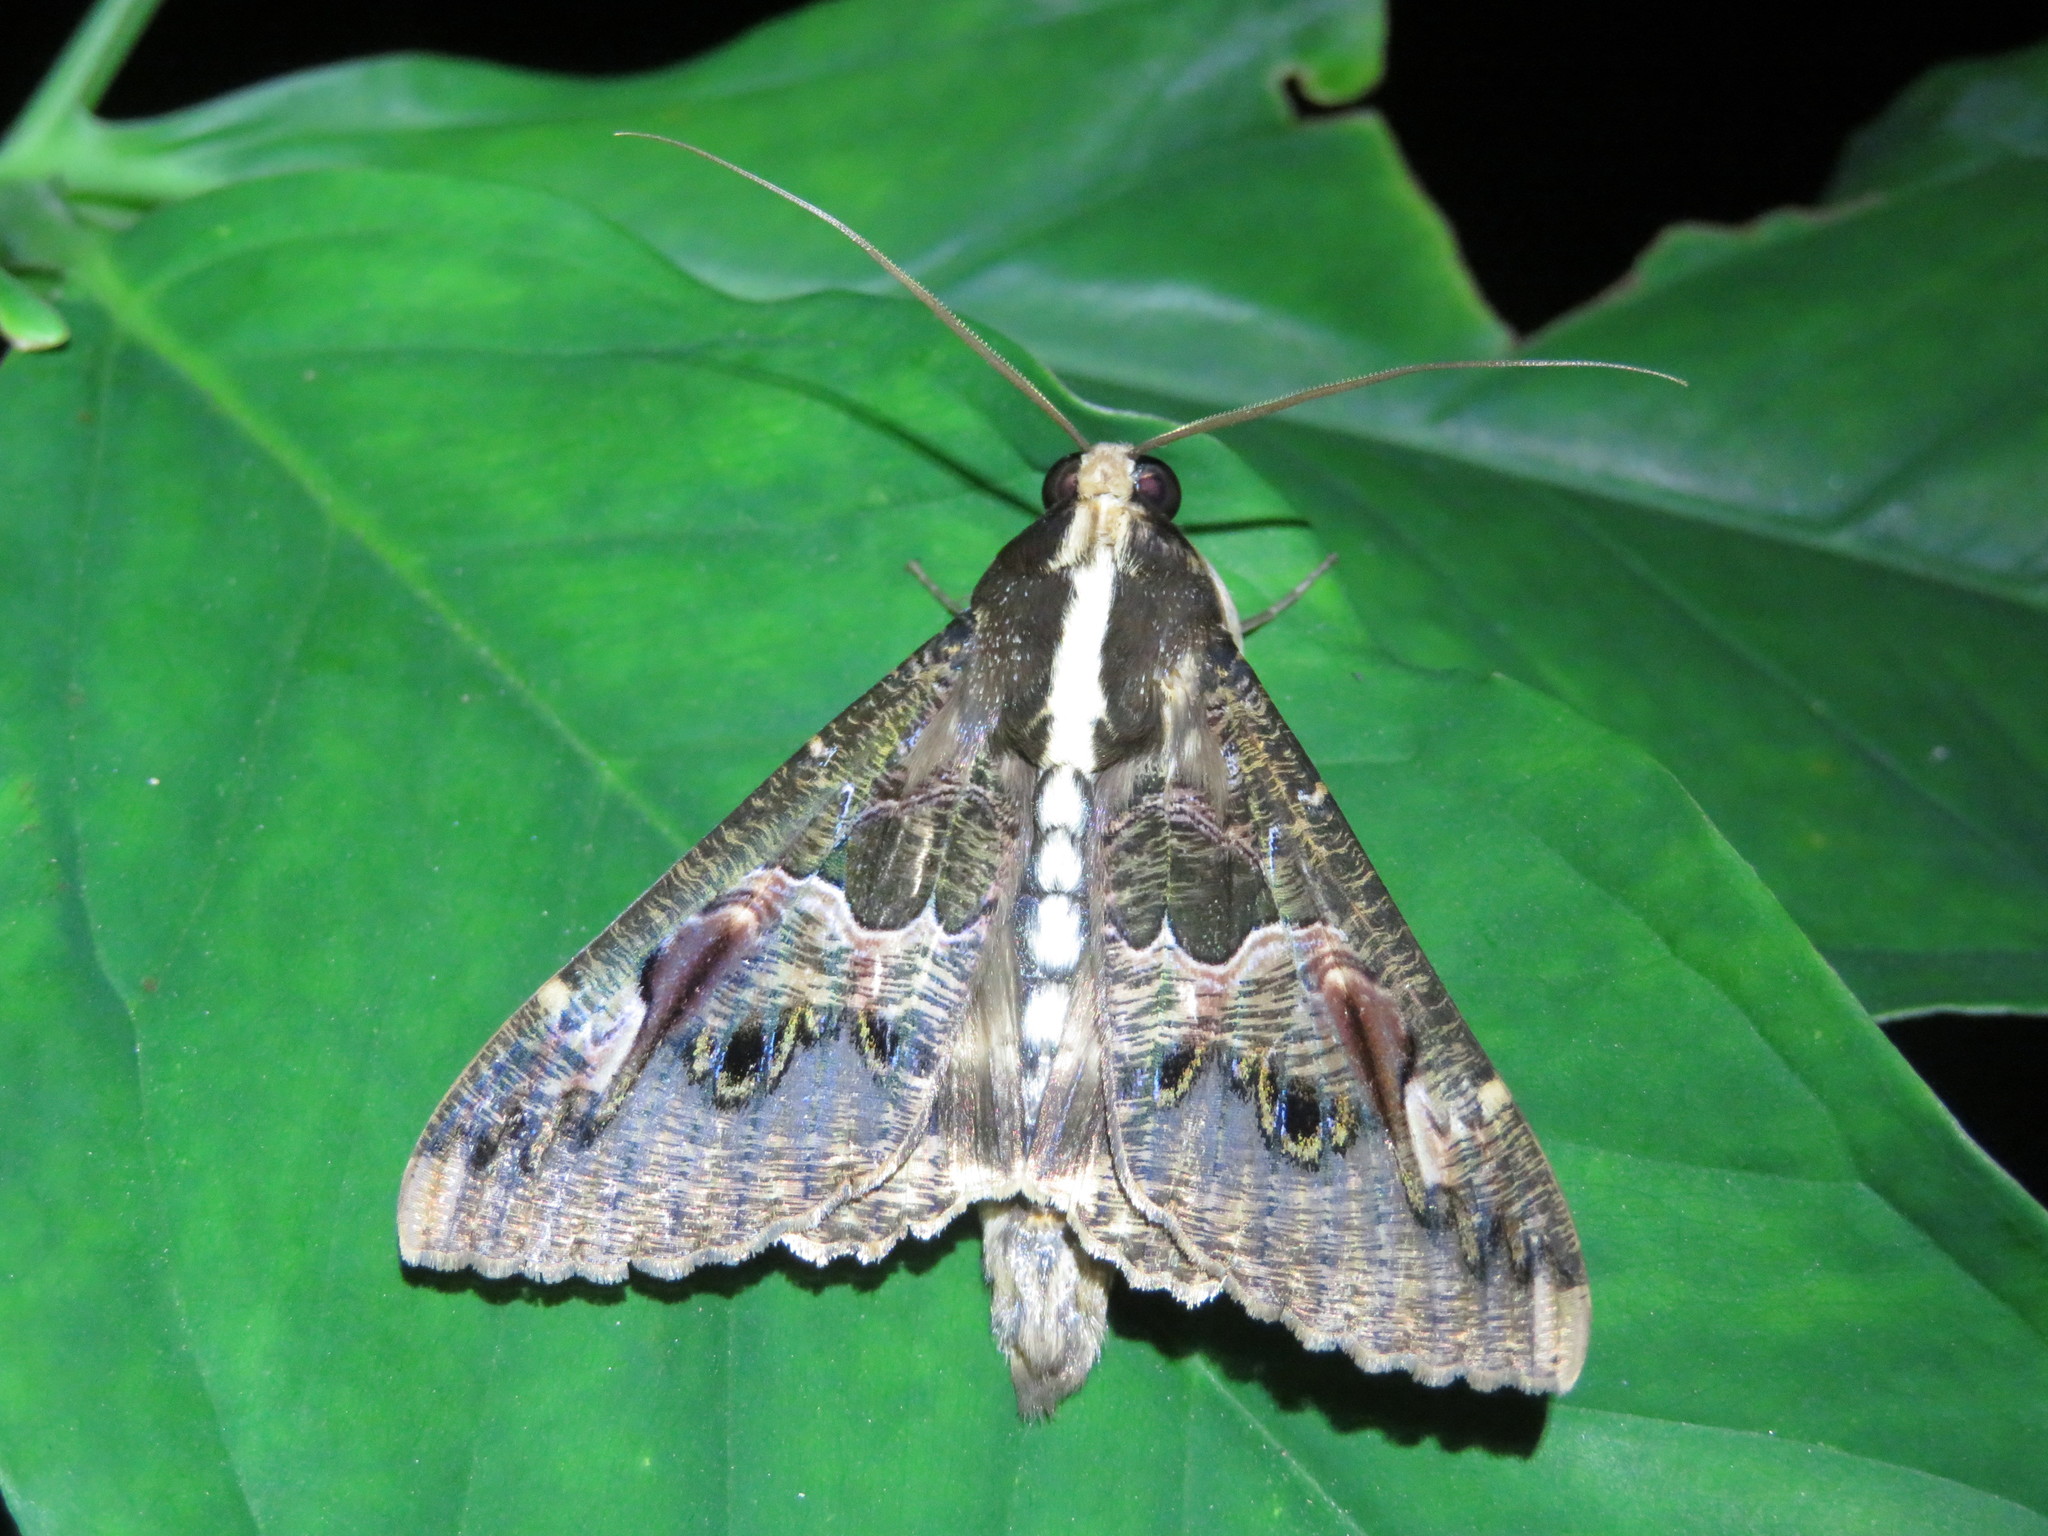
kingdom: Animalia
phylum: Arthropoda
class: Insecta
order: Lepidoptera
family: Erebidae
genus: Sphingomorpha
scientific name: Sphingomorpha chlorea
